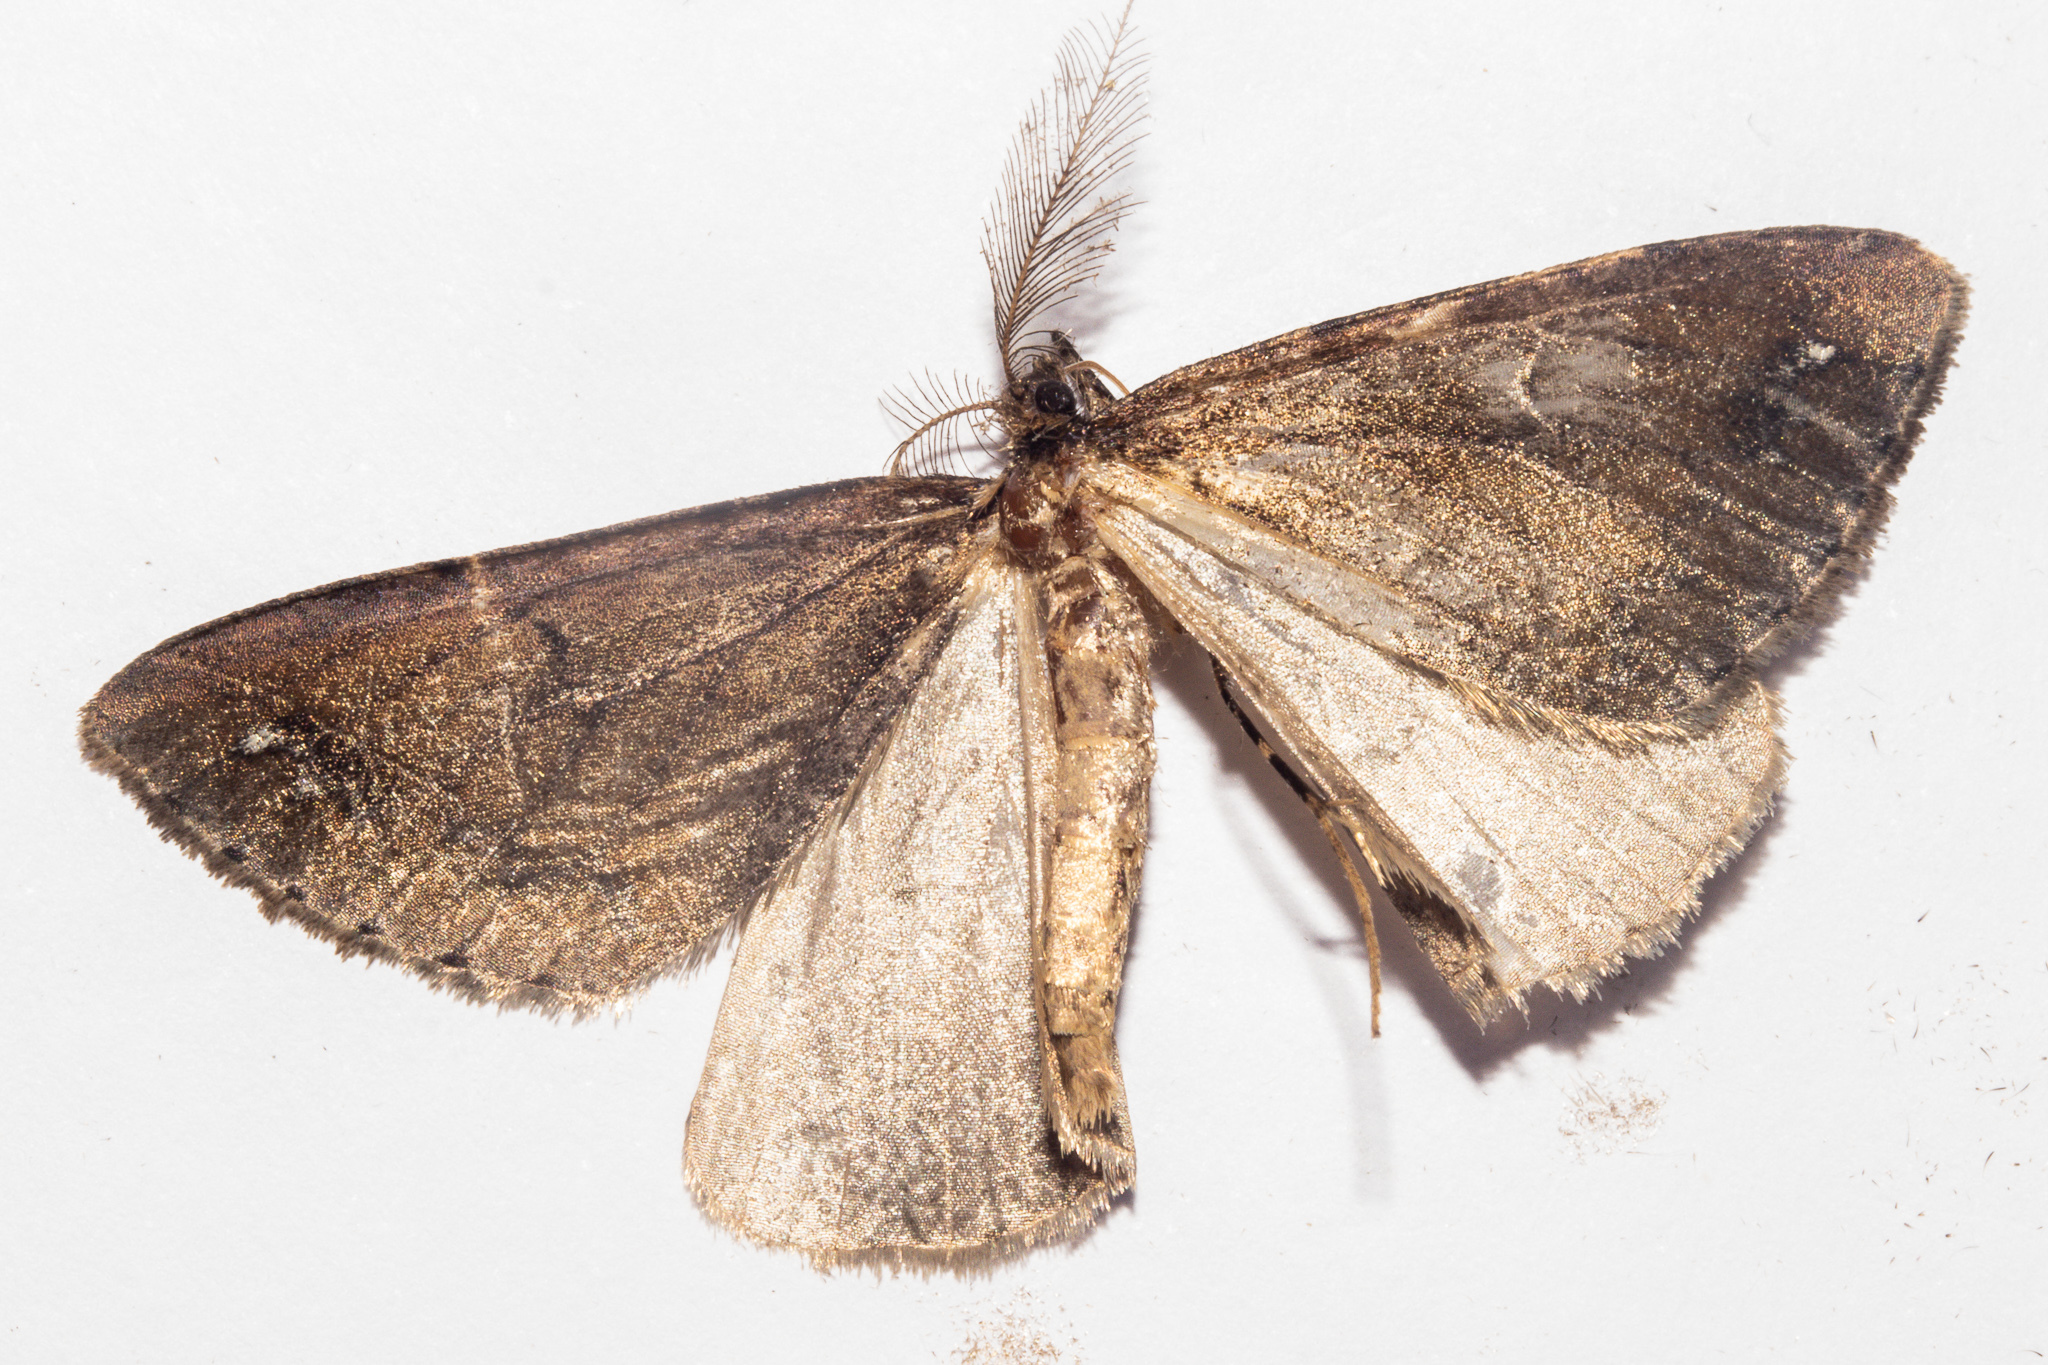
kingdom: Animalia
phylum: Arthropoda
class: Insecta
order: Lepidoptera
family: Geometridae
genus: Pseudocoremia
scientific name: Pseudocoremia berylia
